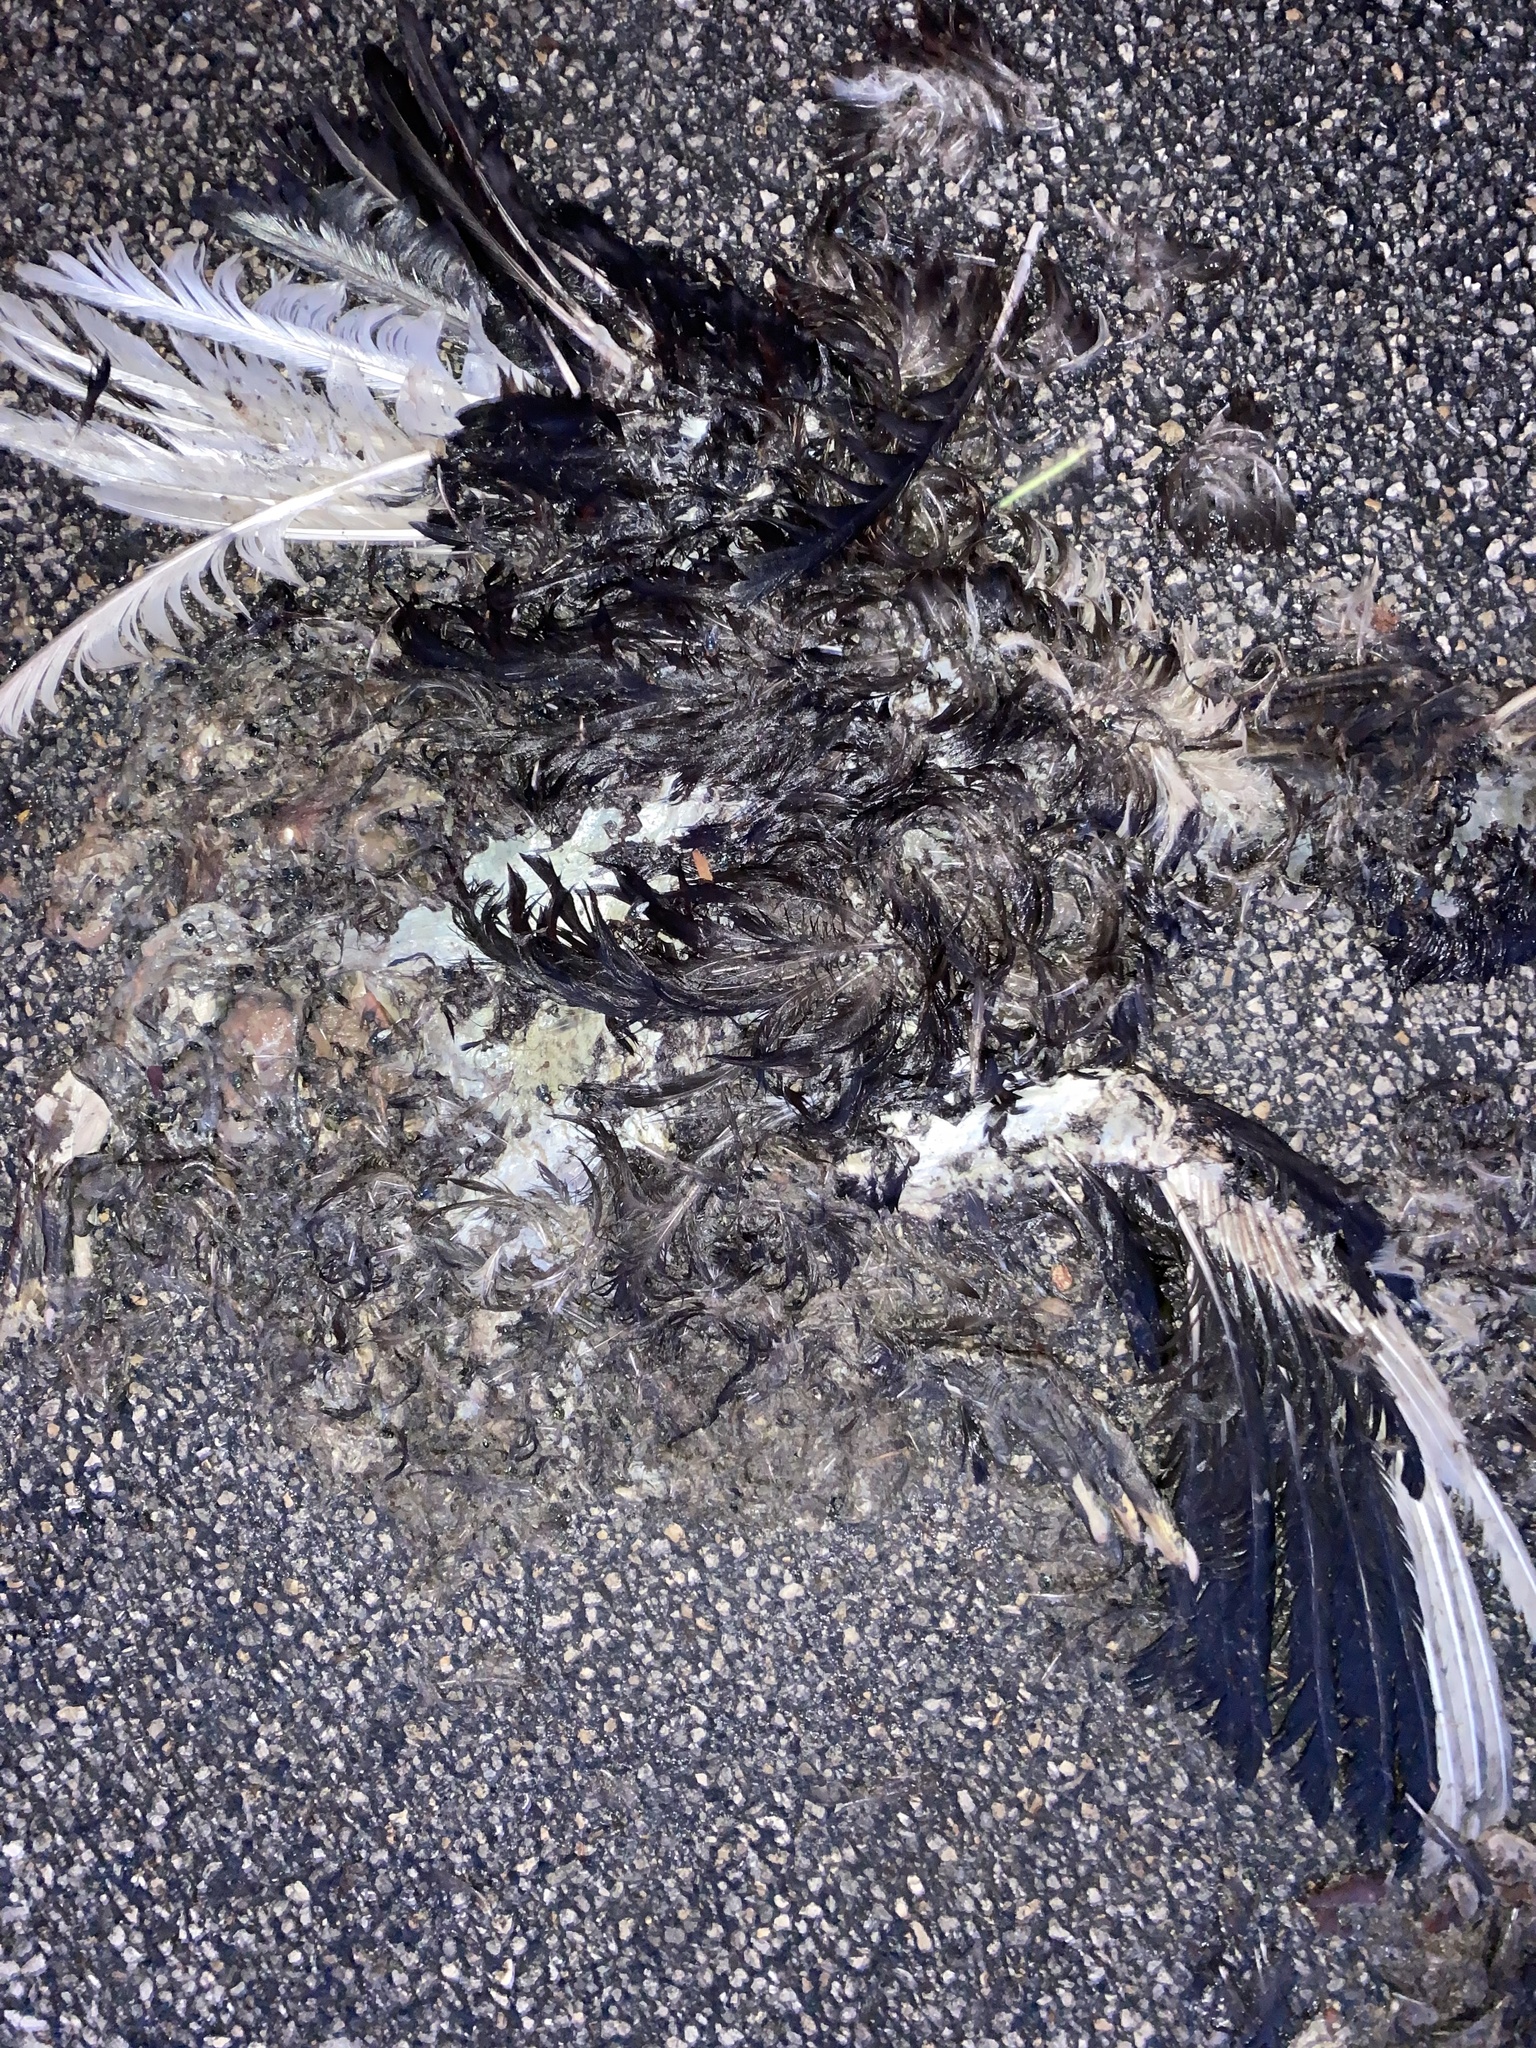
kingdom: Animalia
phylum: Chordata
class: Aves
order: Anseriformes
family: Anatidae
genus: Cairina
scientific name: Cairina moschata
